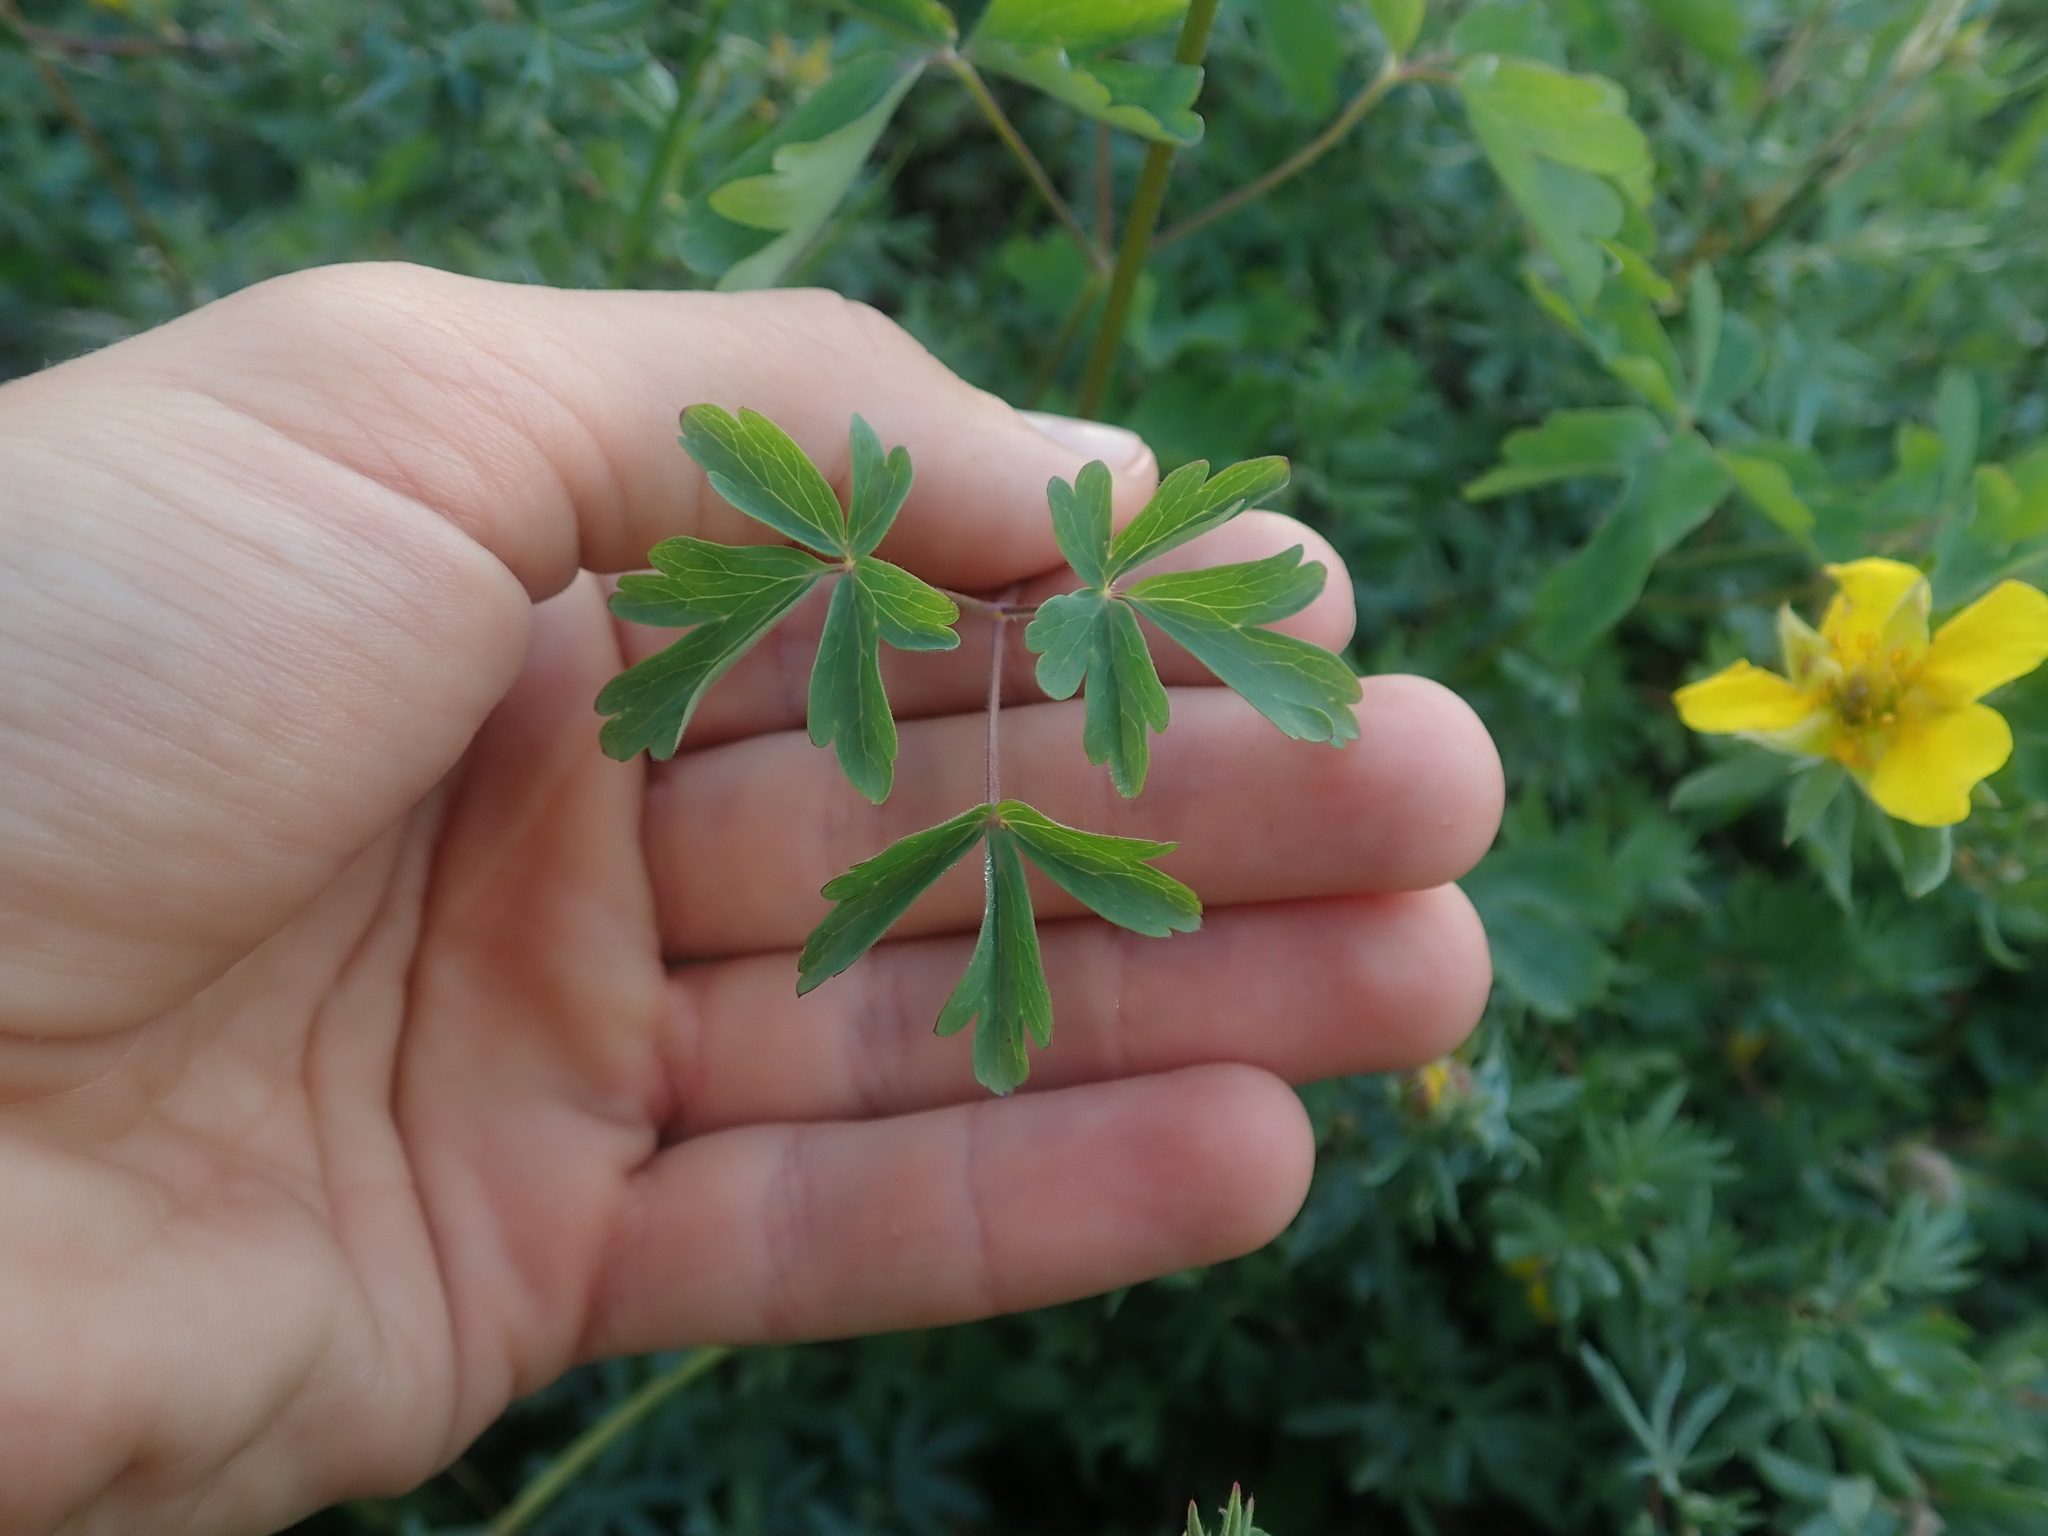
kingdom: Plantae
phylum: Tracheophyta
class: Magnoliopsida
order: Ranunculales
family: Ranunculaceae
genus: Aquilegia
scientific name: Aquilegia formosa
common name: Sitka columbine
